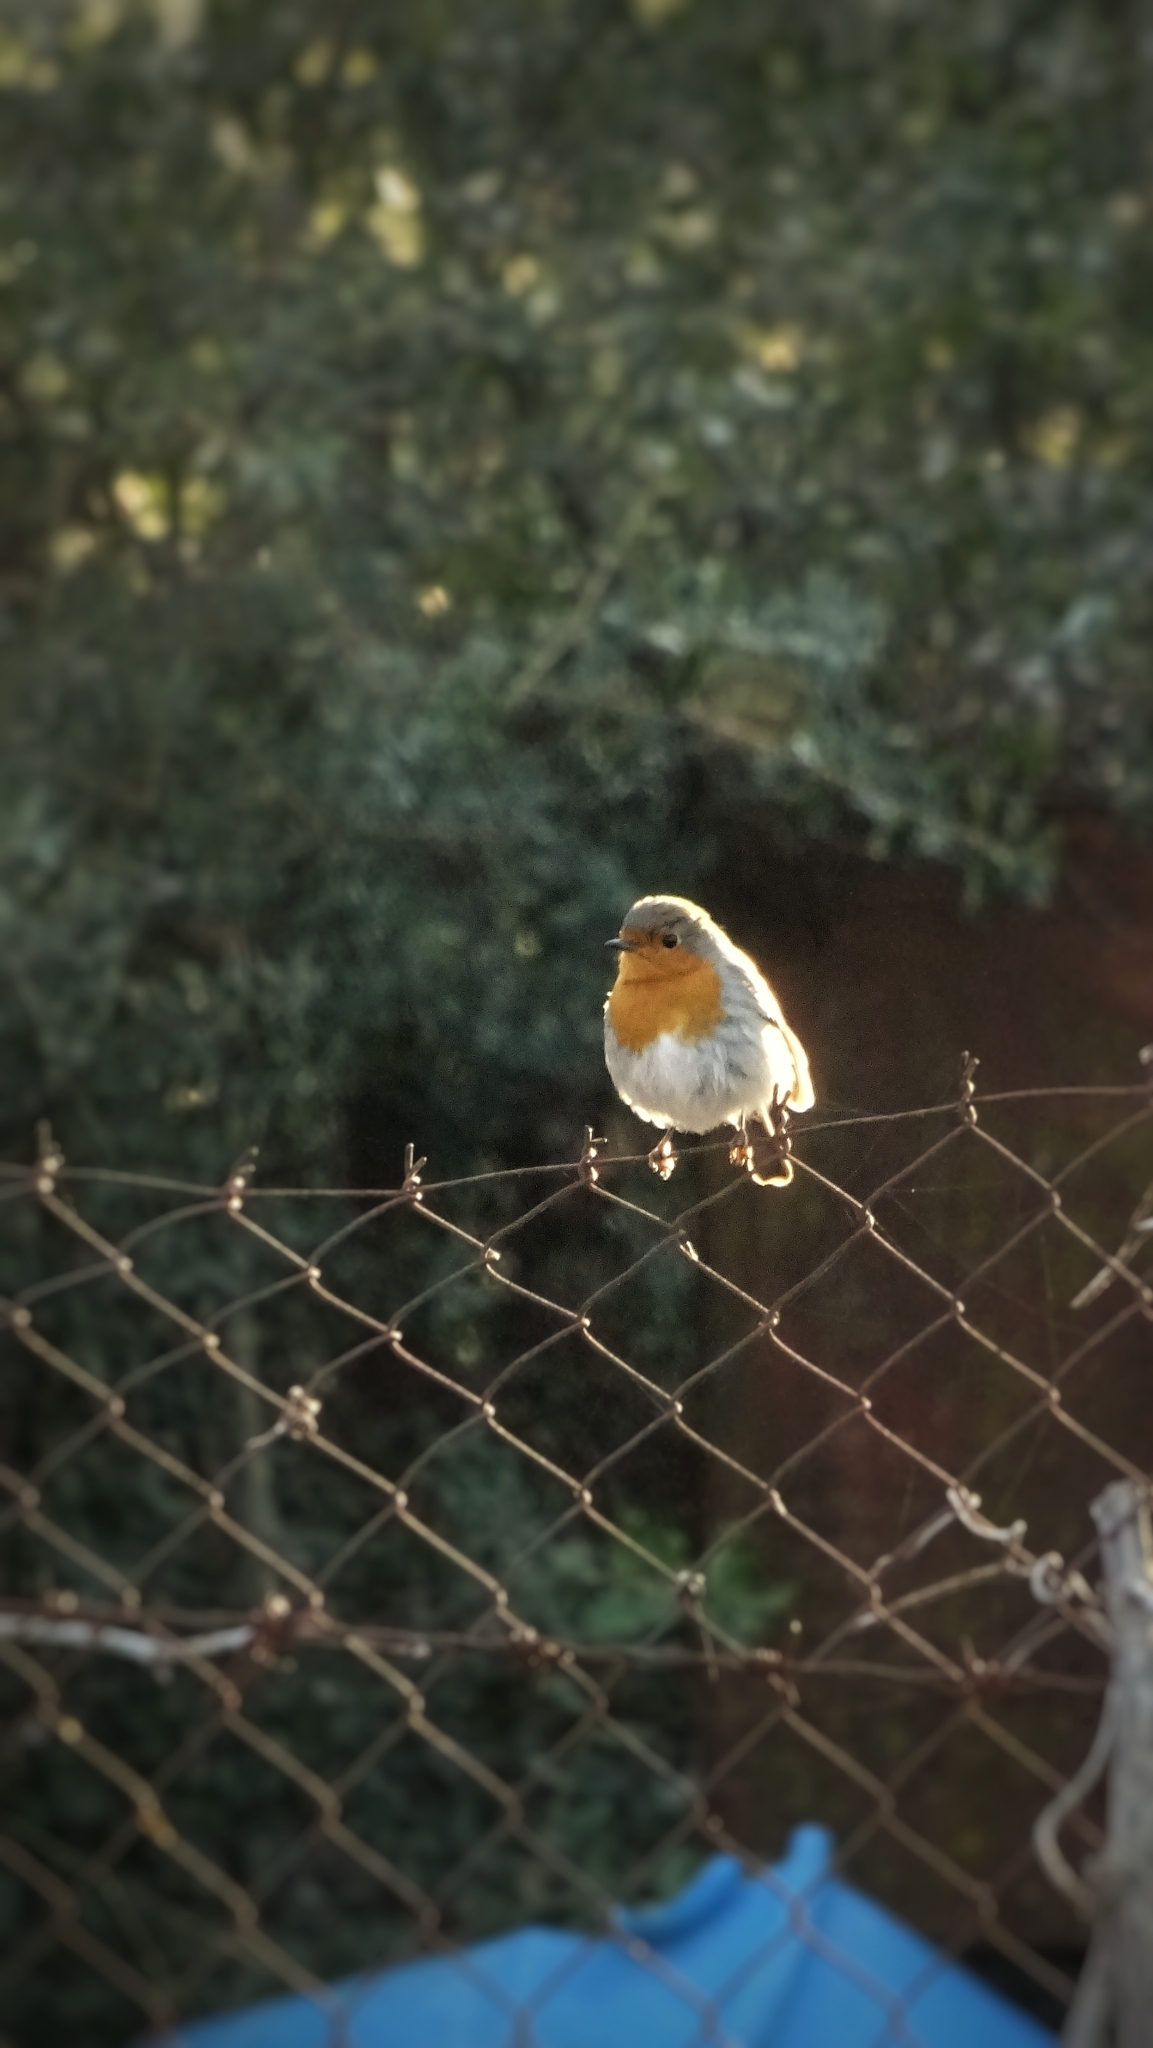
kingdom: Animalia
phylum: Chordata
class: Aves
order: Passeriformes
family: Muscicapidae
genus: Erithacus
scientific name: Erithacus rubecula
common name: European robin
